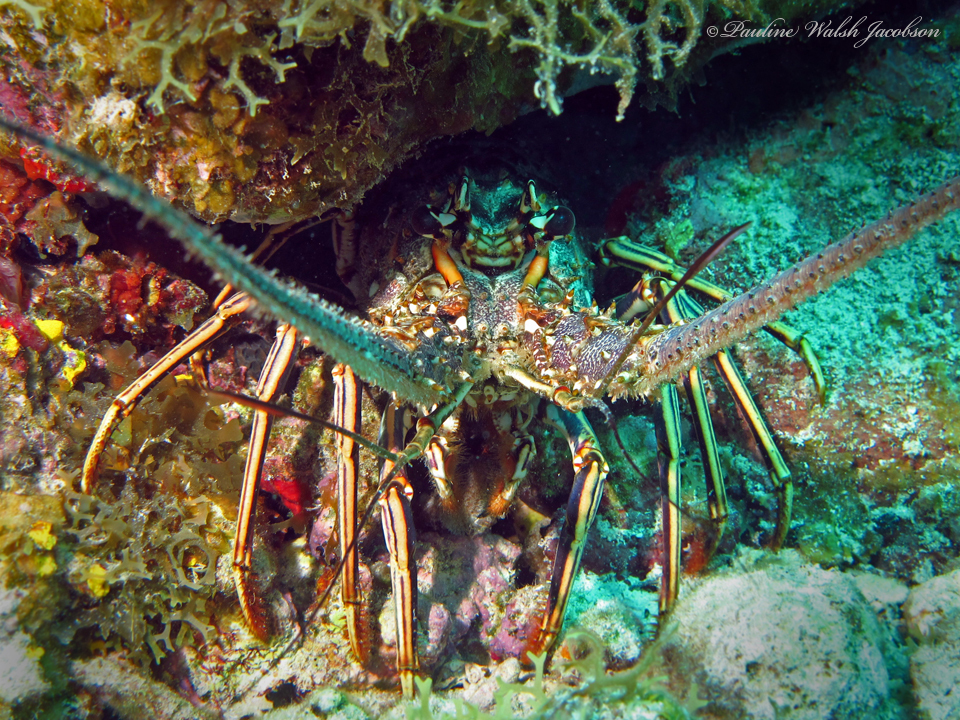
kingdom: Animalia
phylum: Arthropoda
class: Malacostraca
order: Decapoda
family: Palinuridae
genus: Panulirus
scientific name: Panulirus argus
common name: Caribbean spiny lobster
